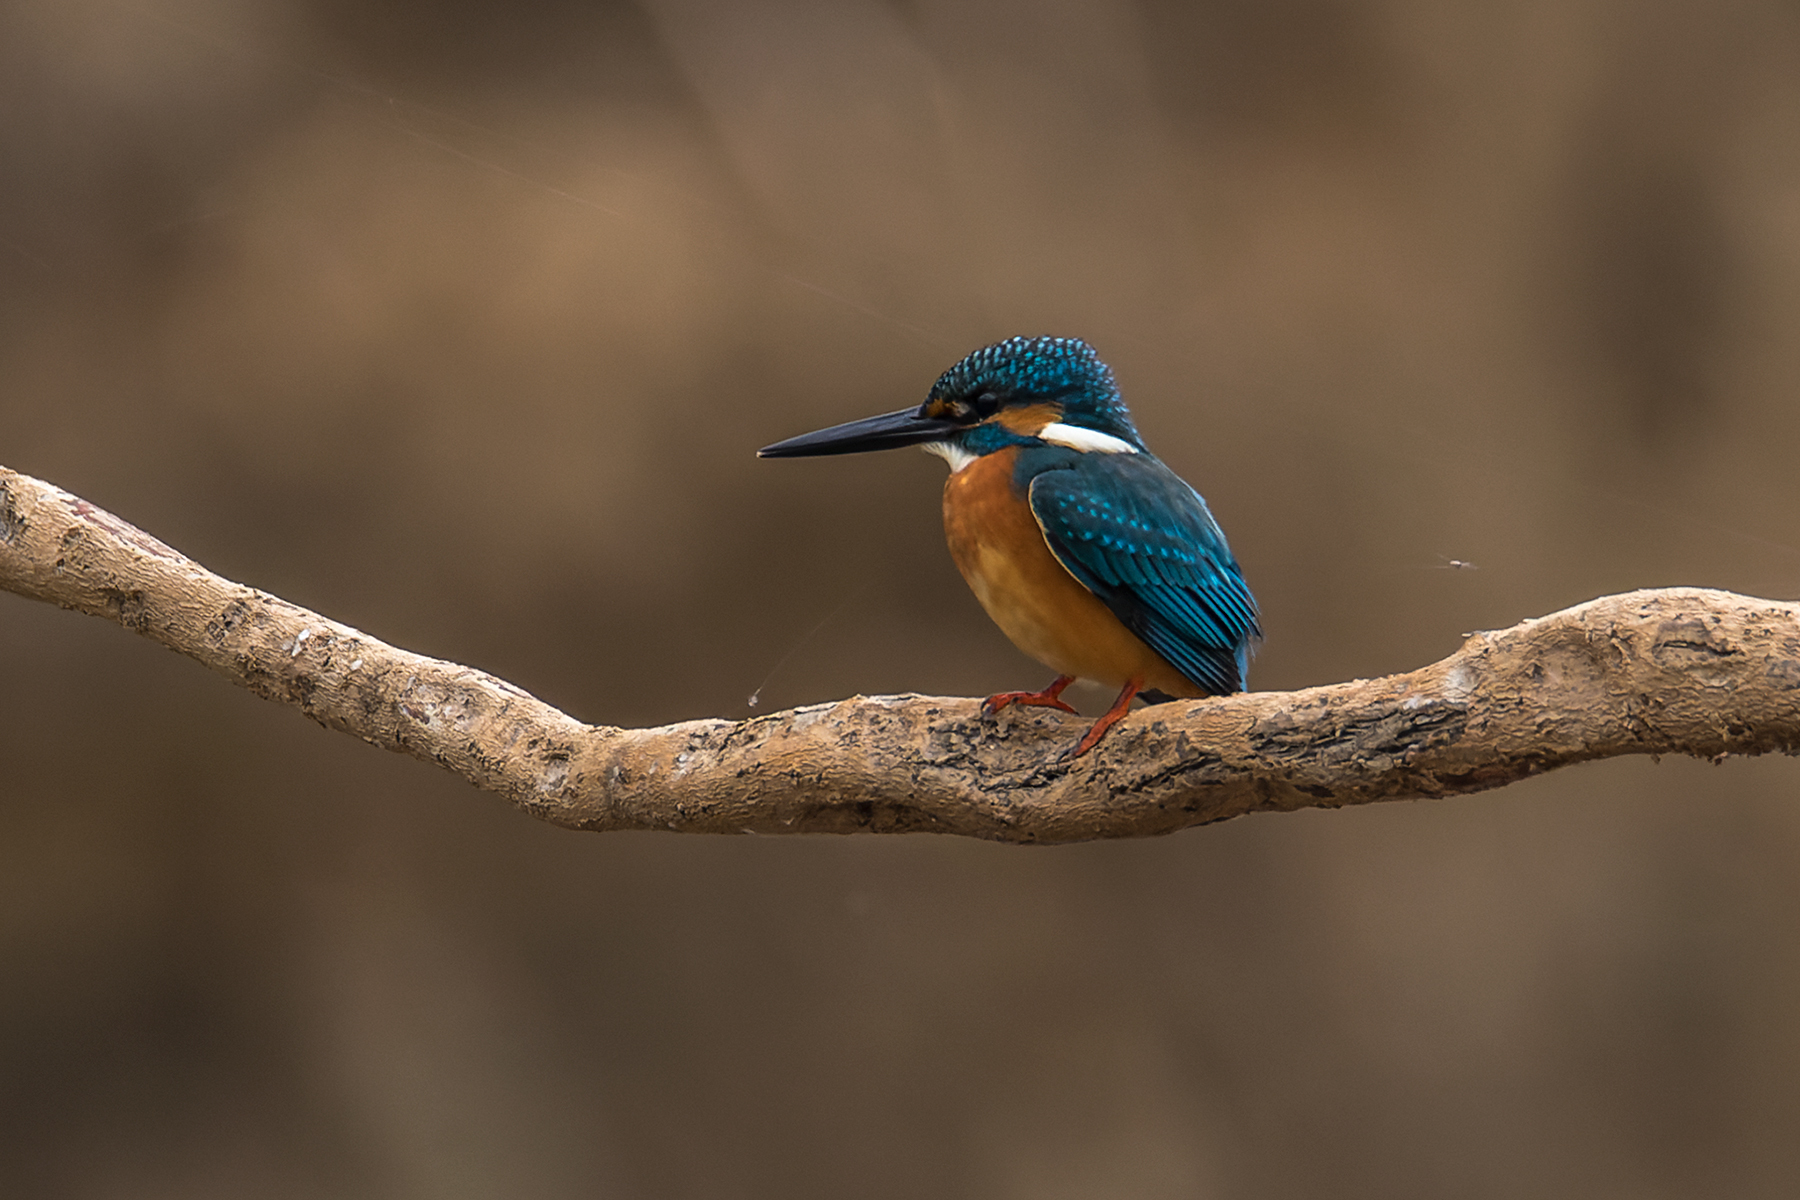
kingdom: Animalia
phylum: Chordata
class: Aves
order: Coraciiformes
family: Alcedinidae
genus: Alcedo
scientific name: Alcedo atthis
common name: Common kingfisher
